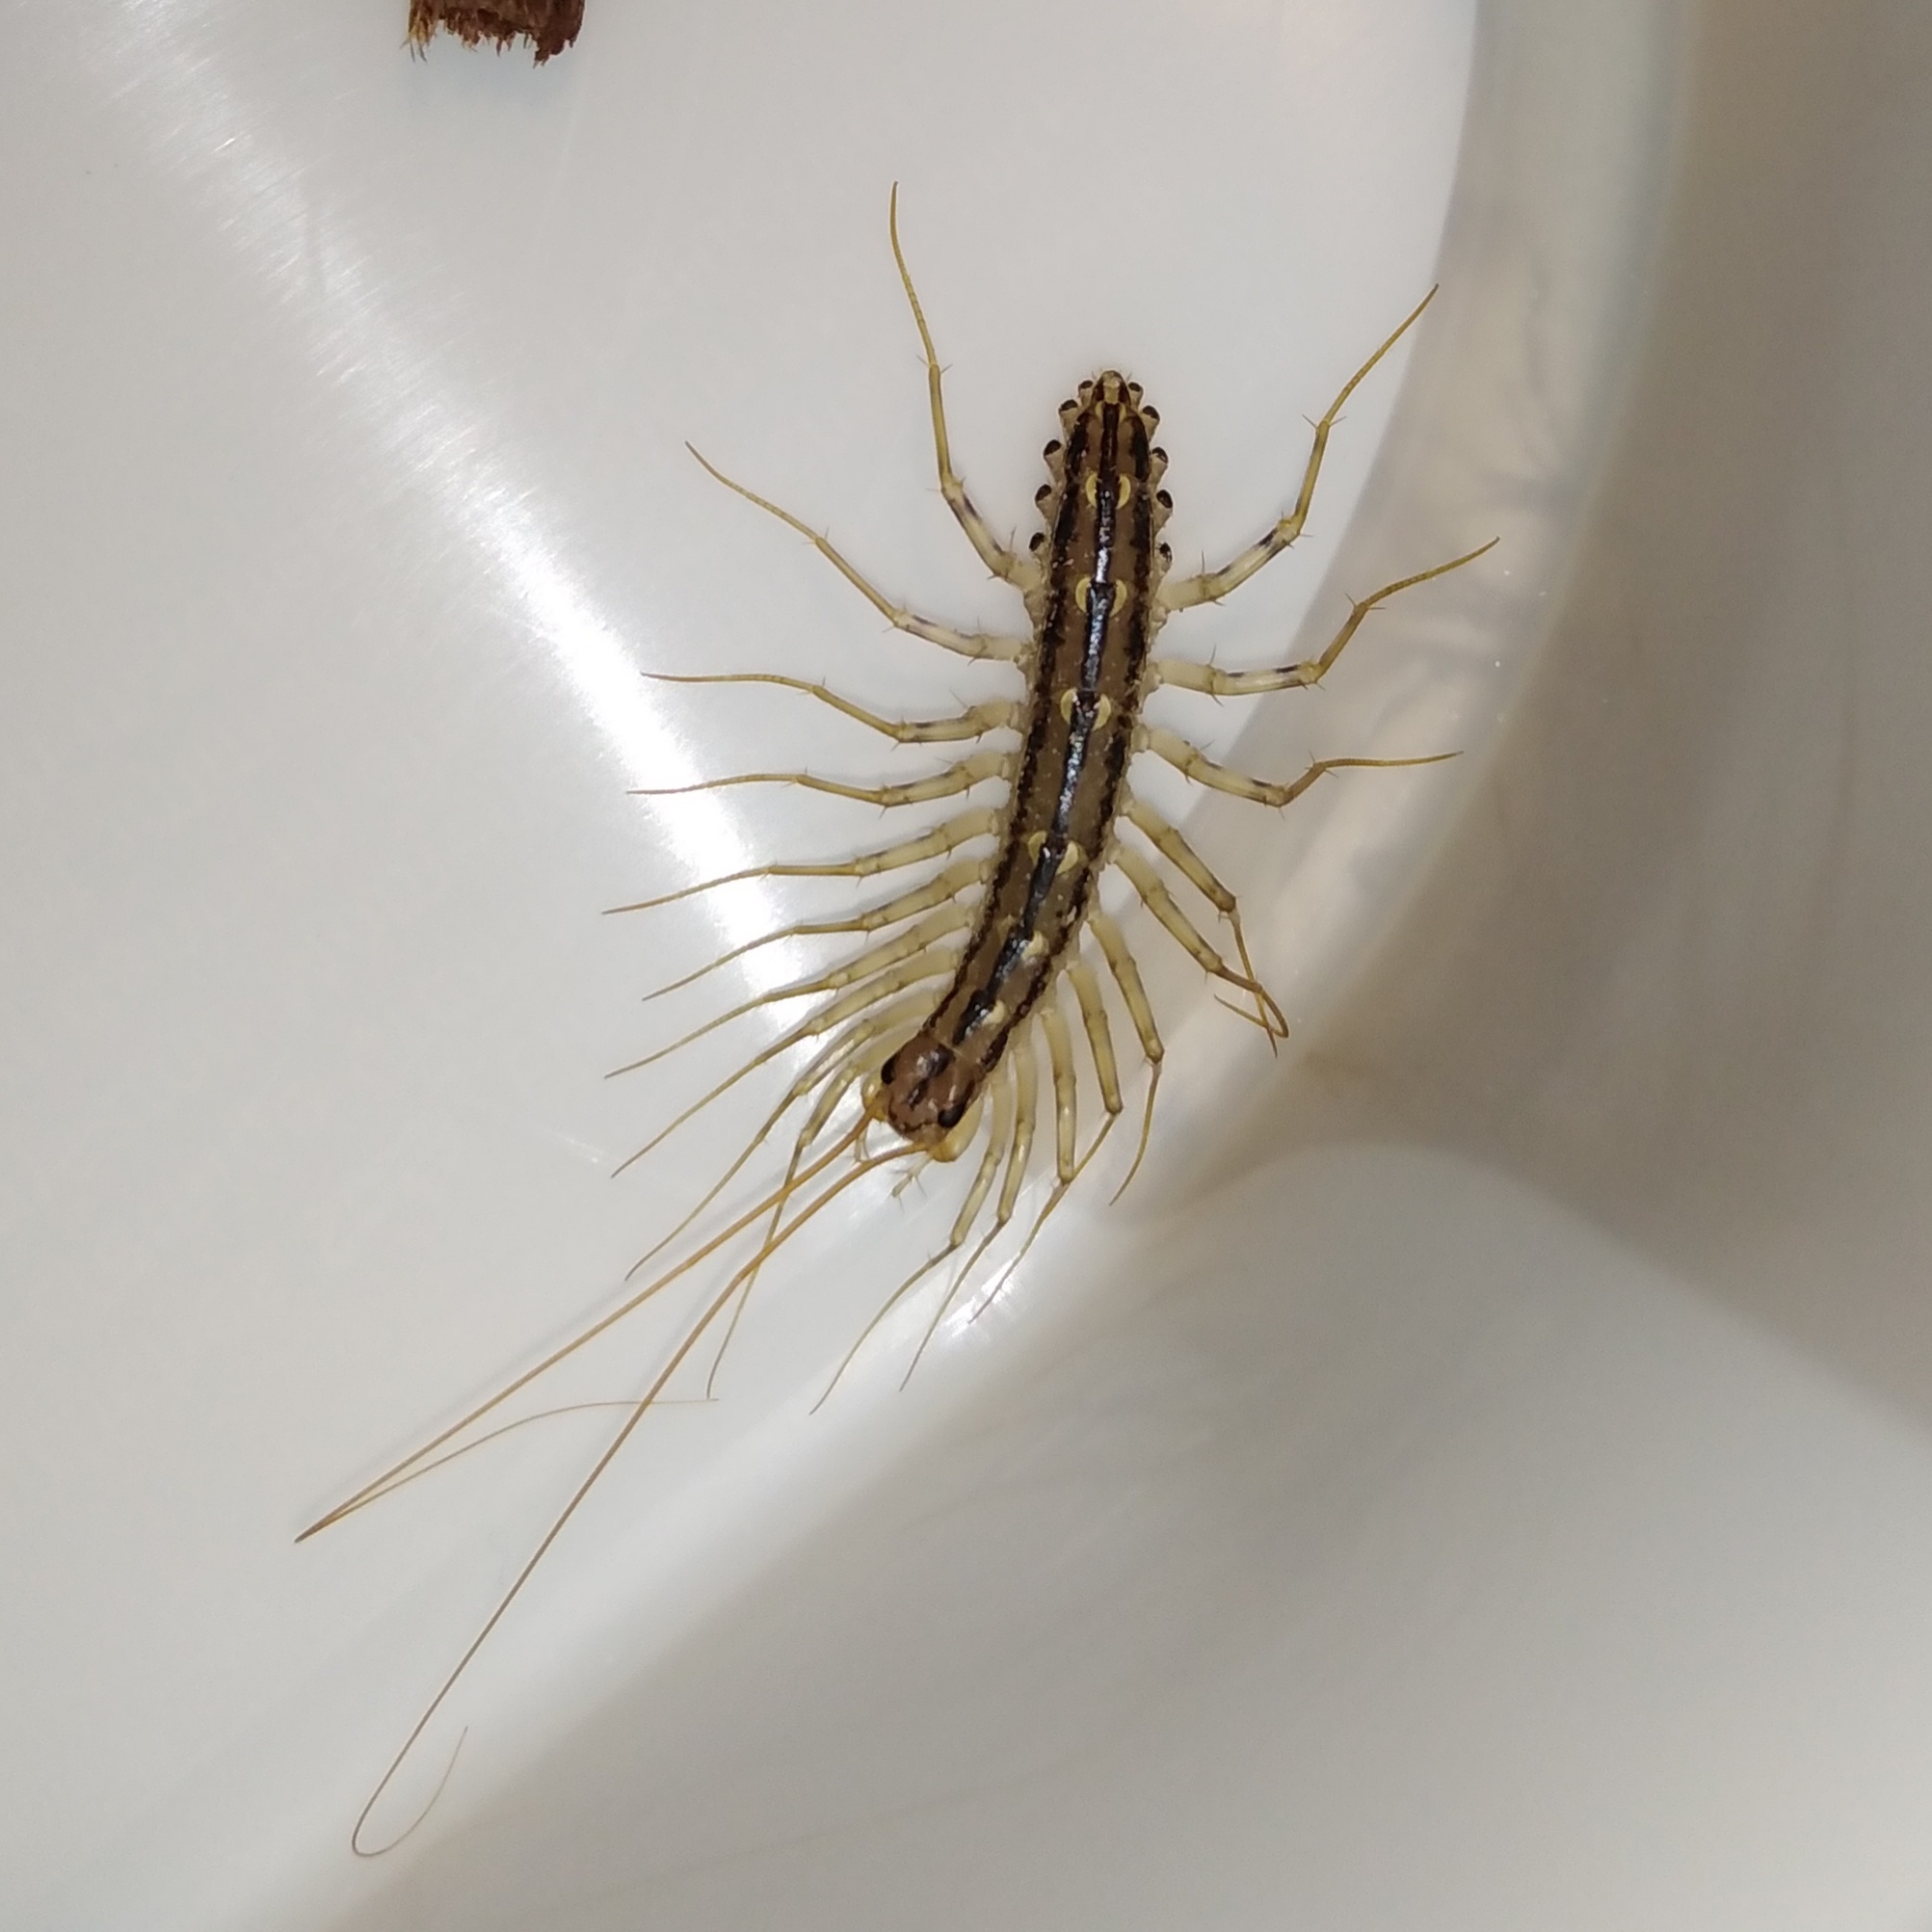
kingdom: Animalia
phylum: Arthropoda
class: Chilopoda
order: Scutigeromorpha
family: Scutigeridae
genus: Scutigera
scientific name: Scutigera coleoptrata
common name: House centipede
